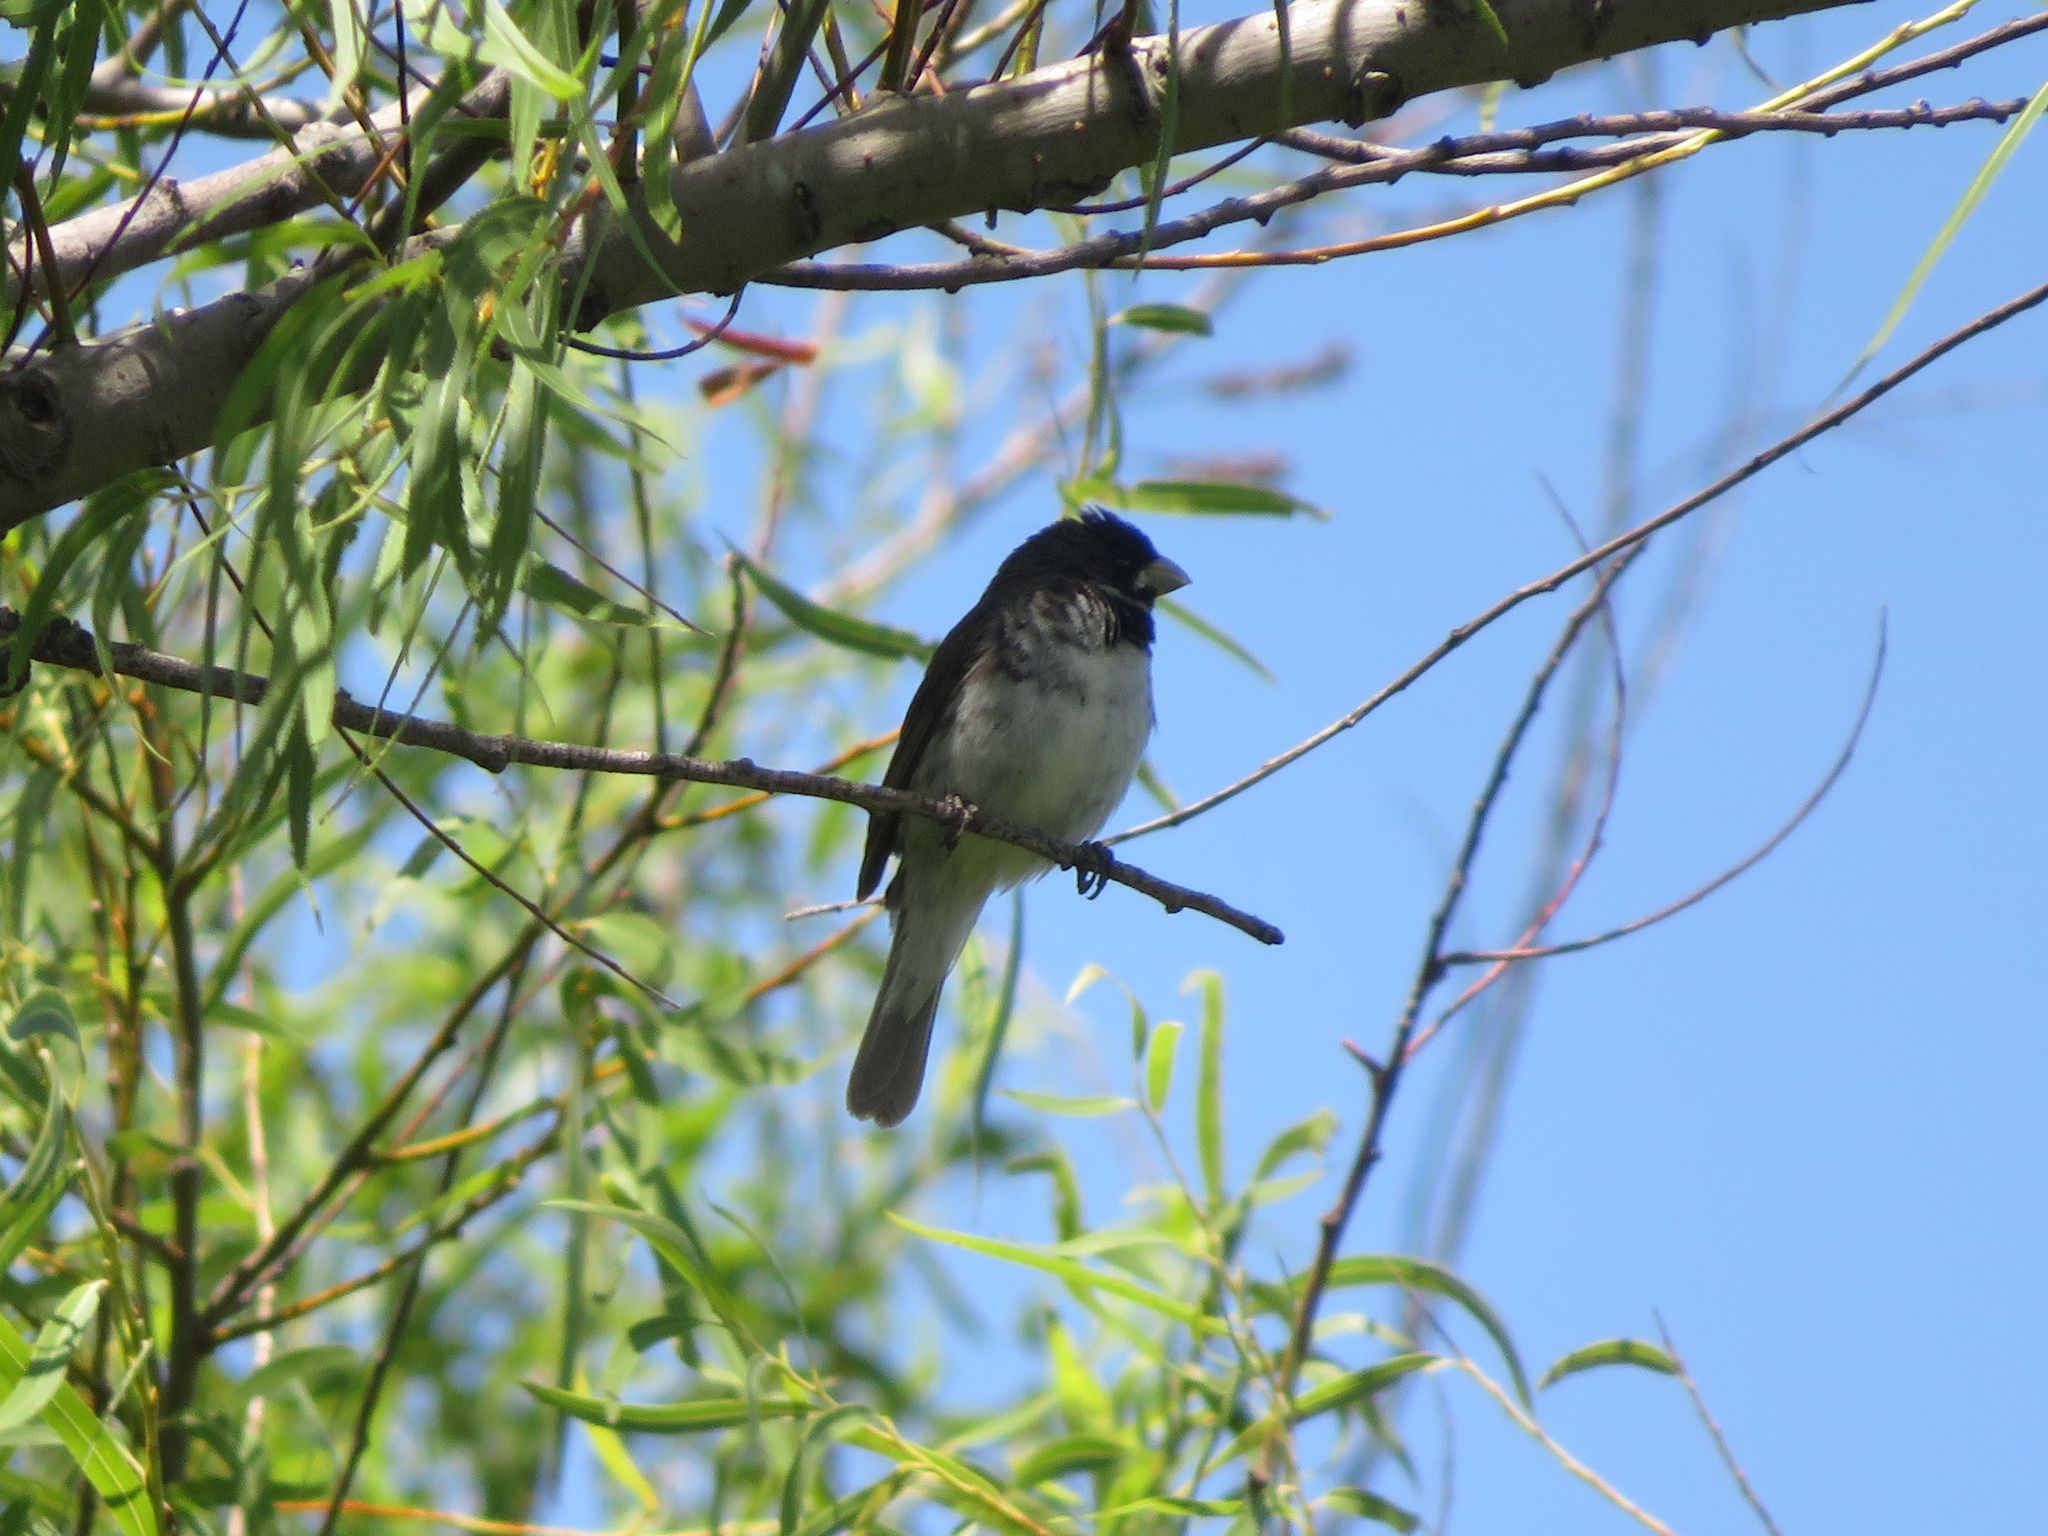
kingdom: Animalia
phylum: Chordata
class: Aves
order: Passeriformes
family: Thraupidae
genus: Sporophila
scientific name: Sporophila caerulescens
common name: Double-collared seedeater
